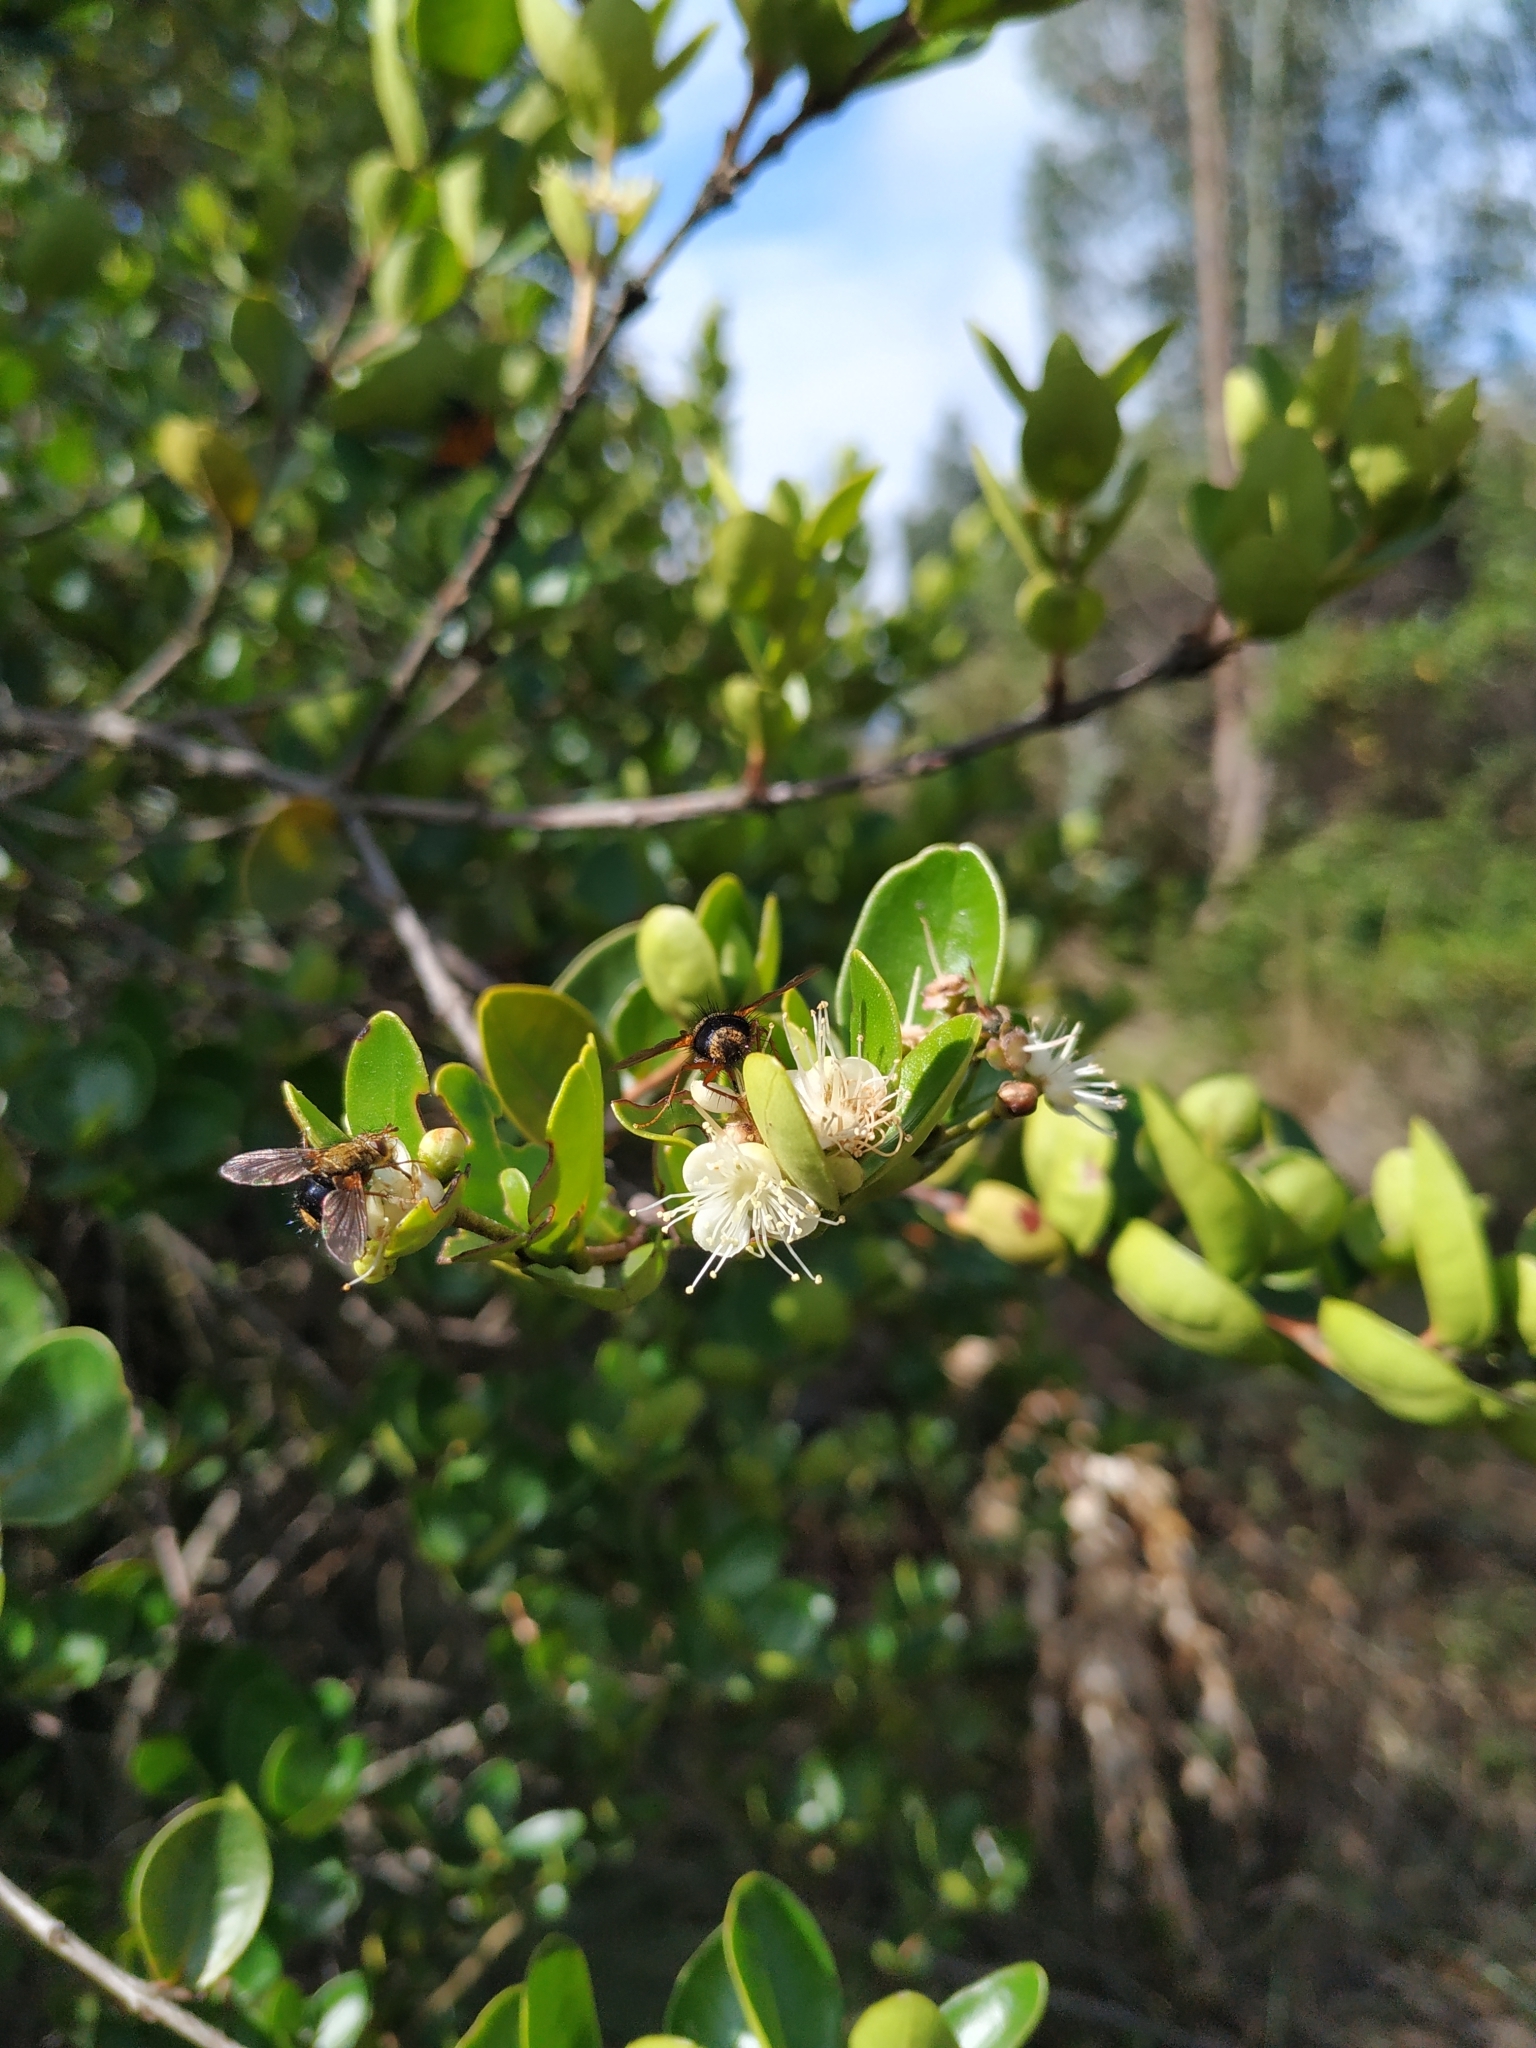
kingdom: Plantae
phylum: Tracheophyta
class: Magnoliopsida
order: Myrtales
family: Myrtaceae
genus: Myrcianthes
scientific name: Myrcianthes leucoxyla
